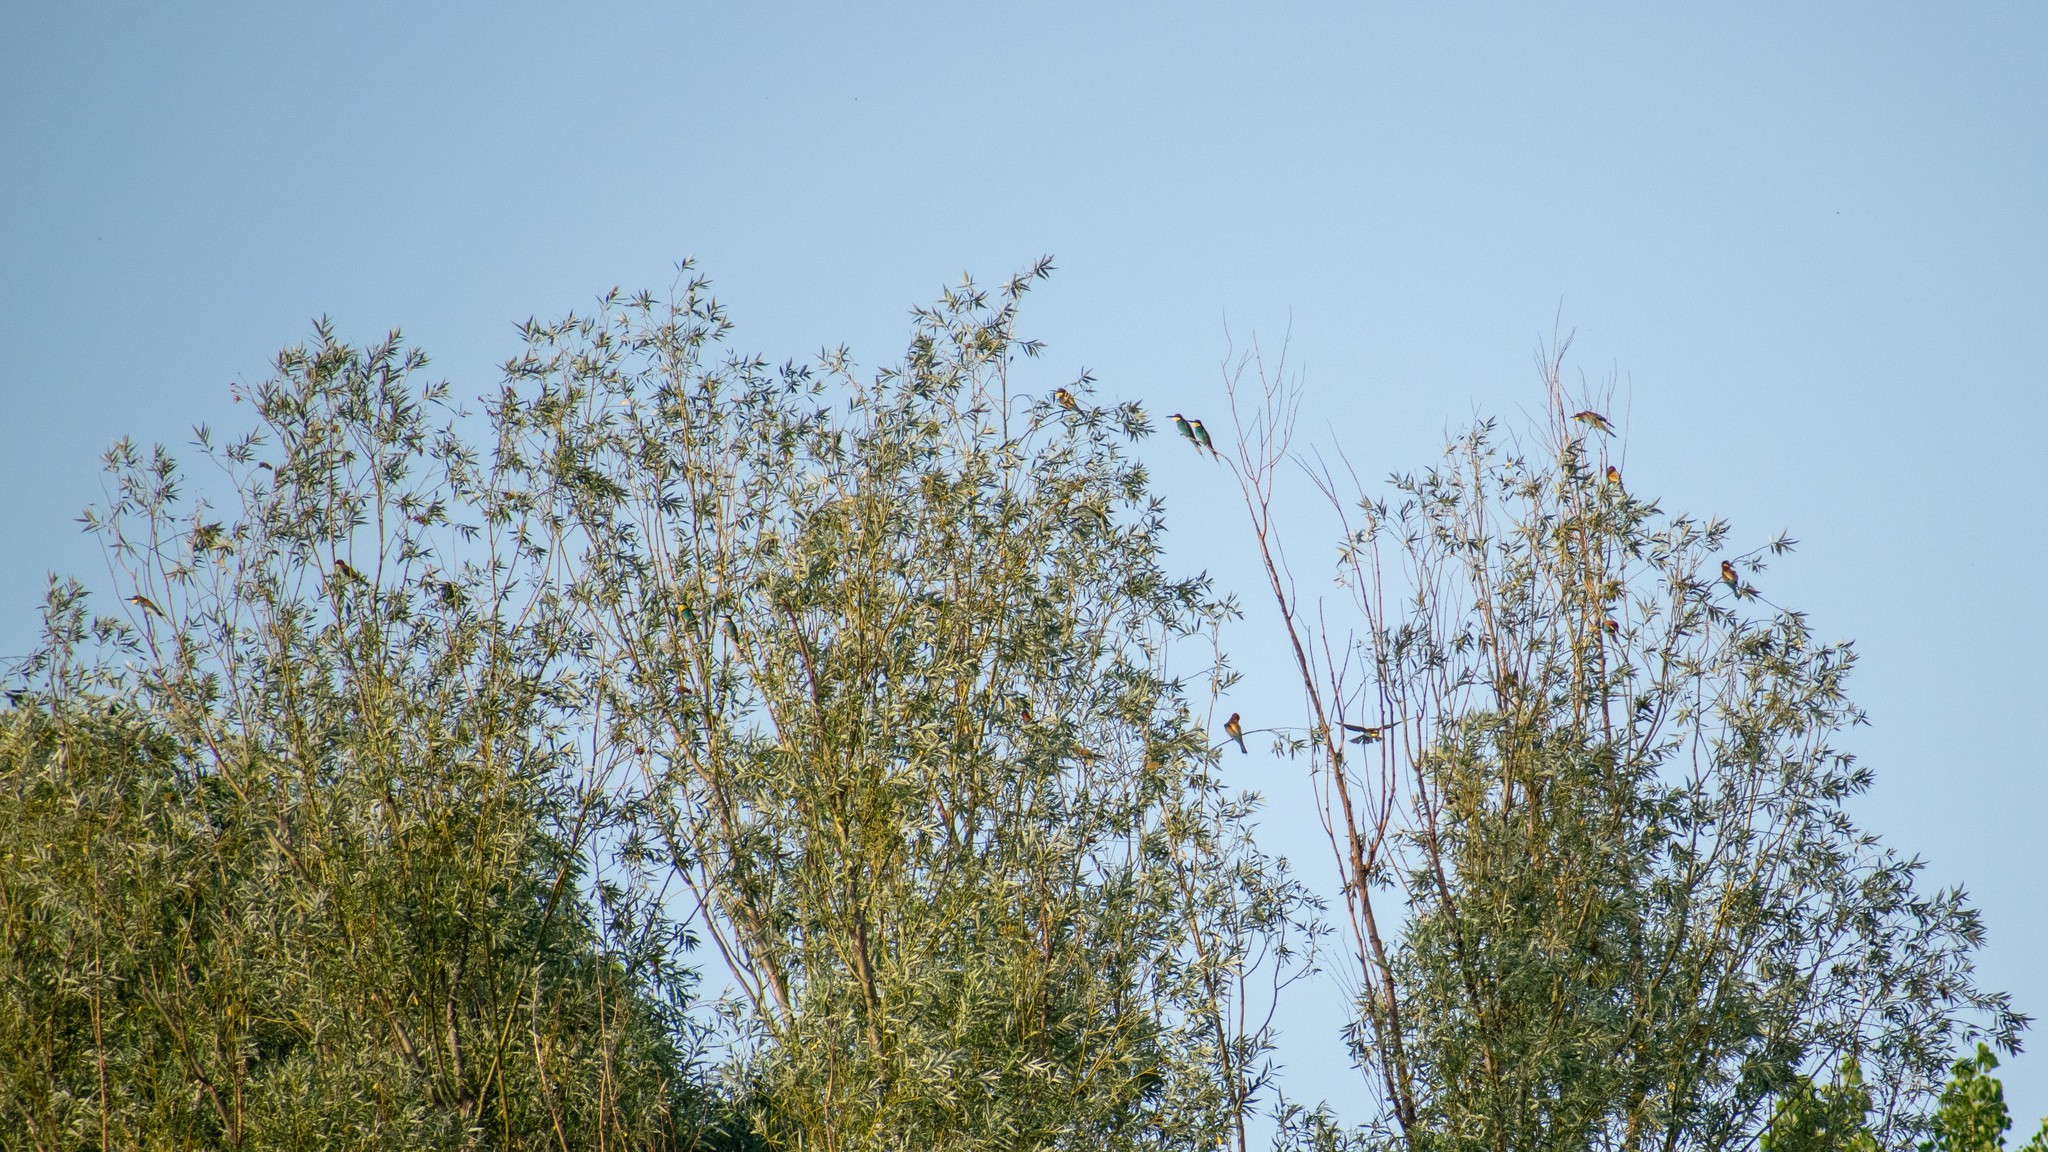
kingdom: Animalia
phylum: Chordata
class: Aves
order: Coraciiformes
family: Meropidae
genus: Merops
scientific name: Merops apiaster
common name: European bee-eater
